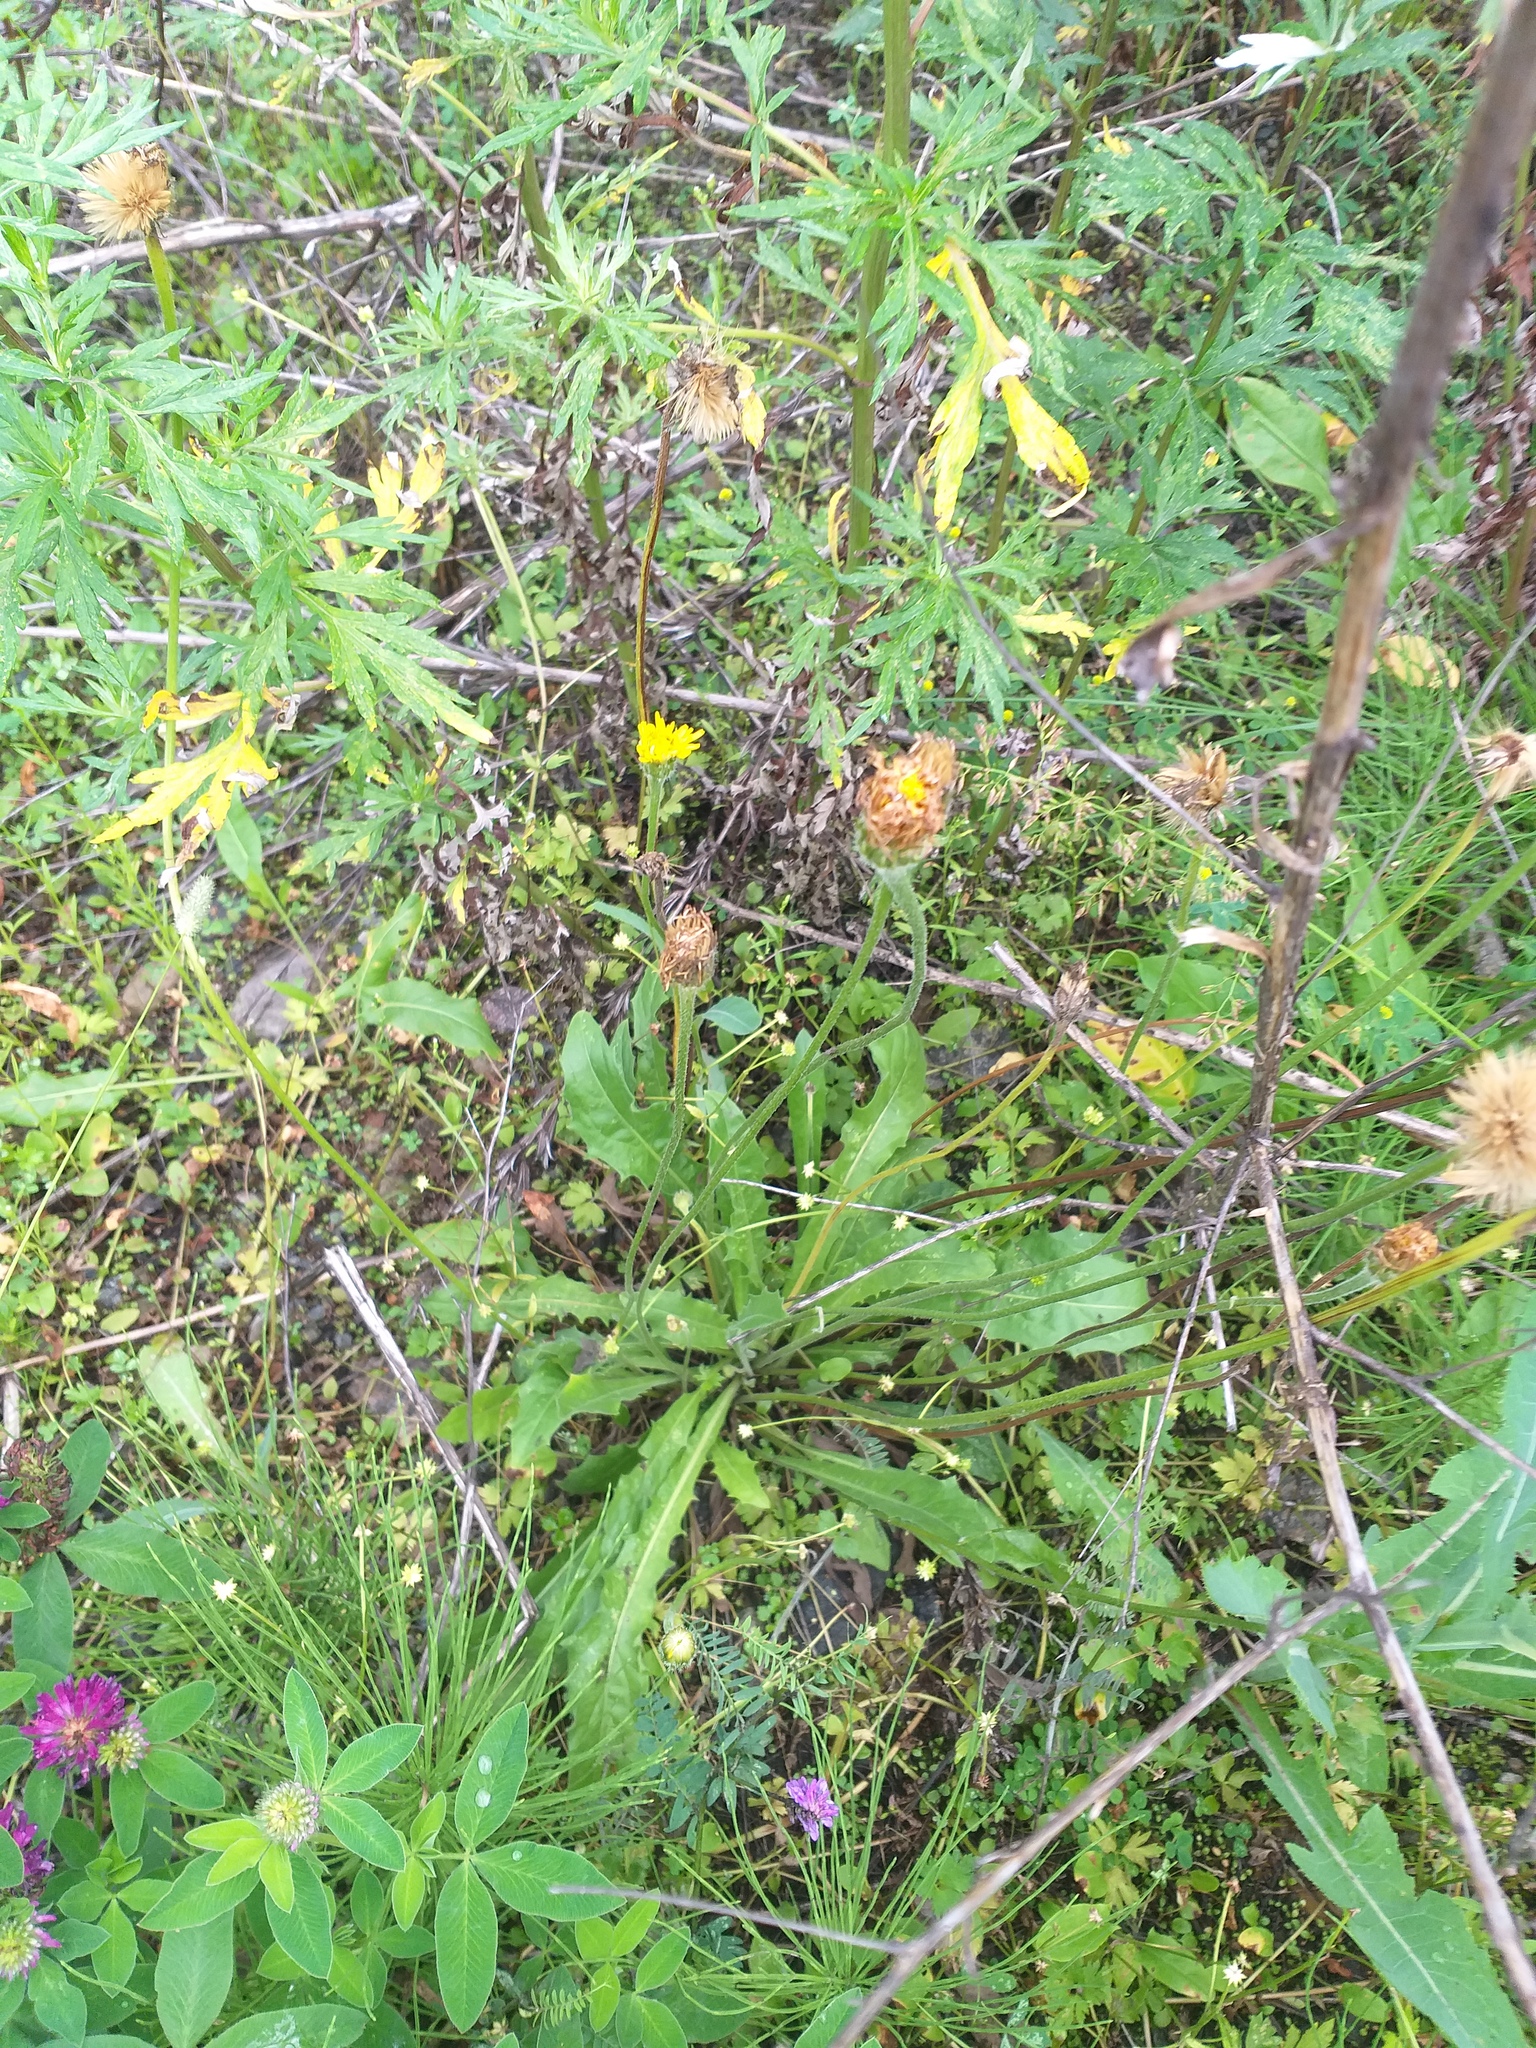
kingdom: Plantae
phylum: Tracheophyta
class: Magnoliopsida
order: Asterales
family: Asteraceae
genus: Leontodon
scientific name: Leontodon hispidus
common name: Rough hawkbit
